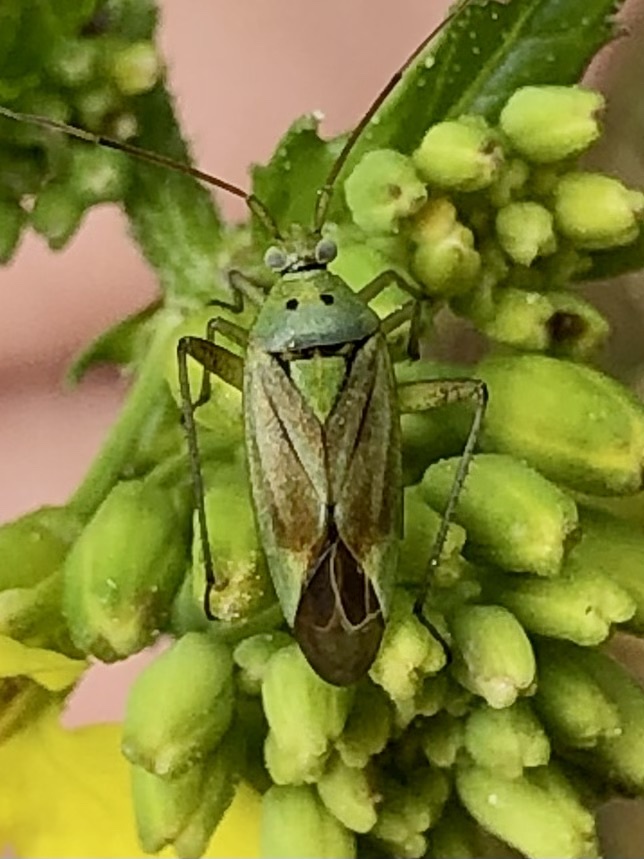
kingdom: Animalia
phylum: Arthropoda
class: Insecta
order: Hemiptera
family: Miridae
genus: Closterotomus
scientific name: Closterotomus norvegicus
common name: Plant bug
